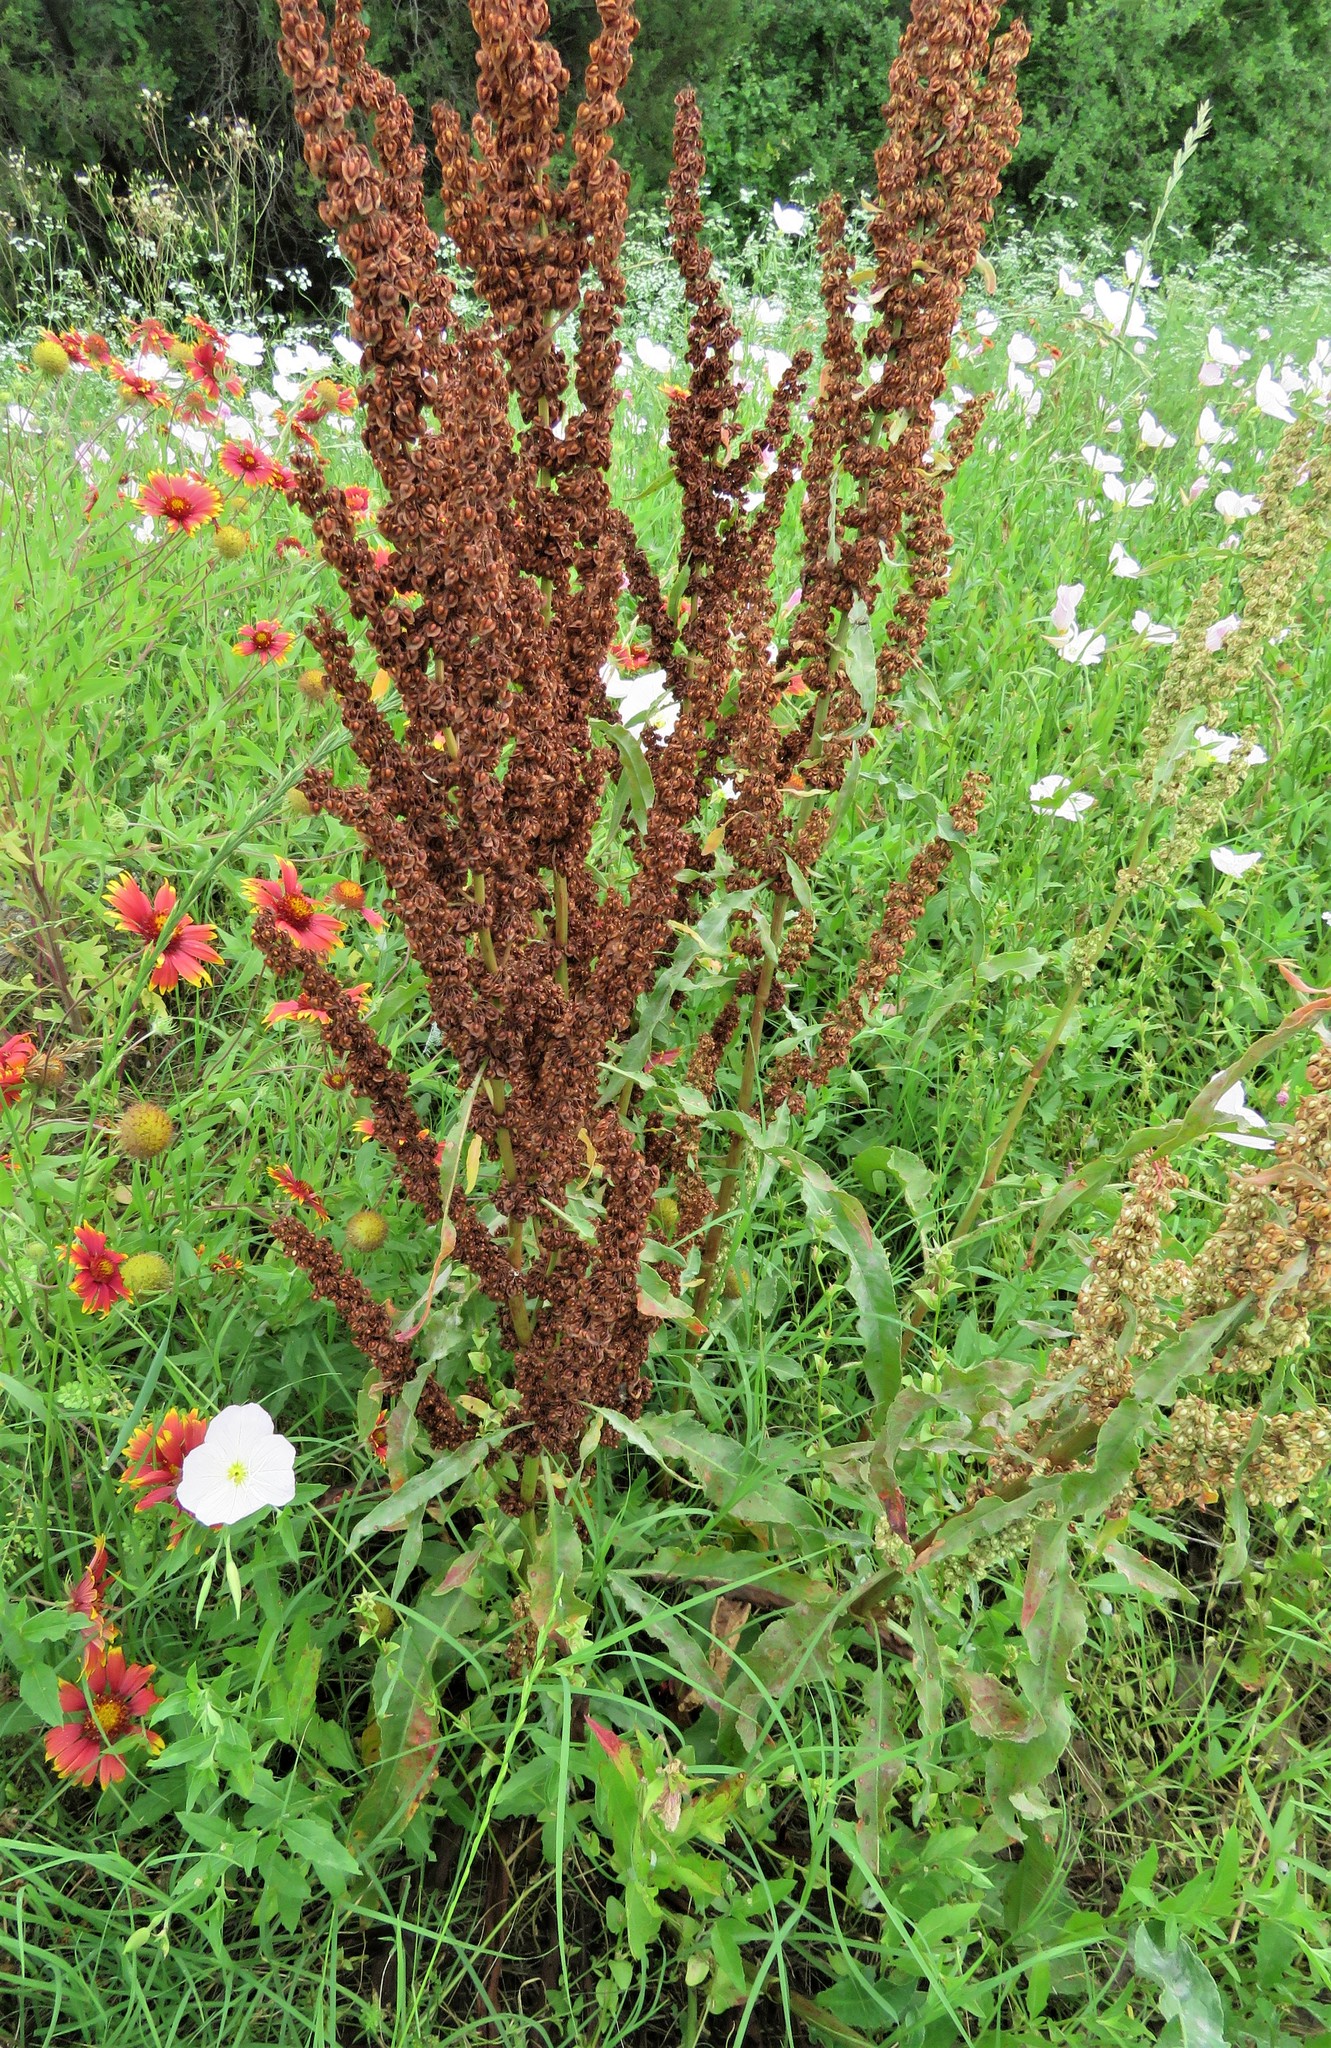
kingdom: Plantae
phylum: Tracheophyta
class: Magnoliopsida
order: Caryophyllales
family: Polygonaceae
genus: Rumex
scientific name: Rumex crispus
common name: Curled dock
